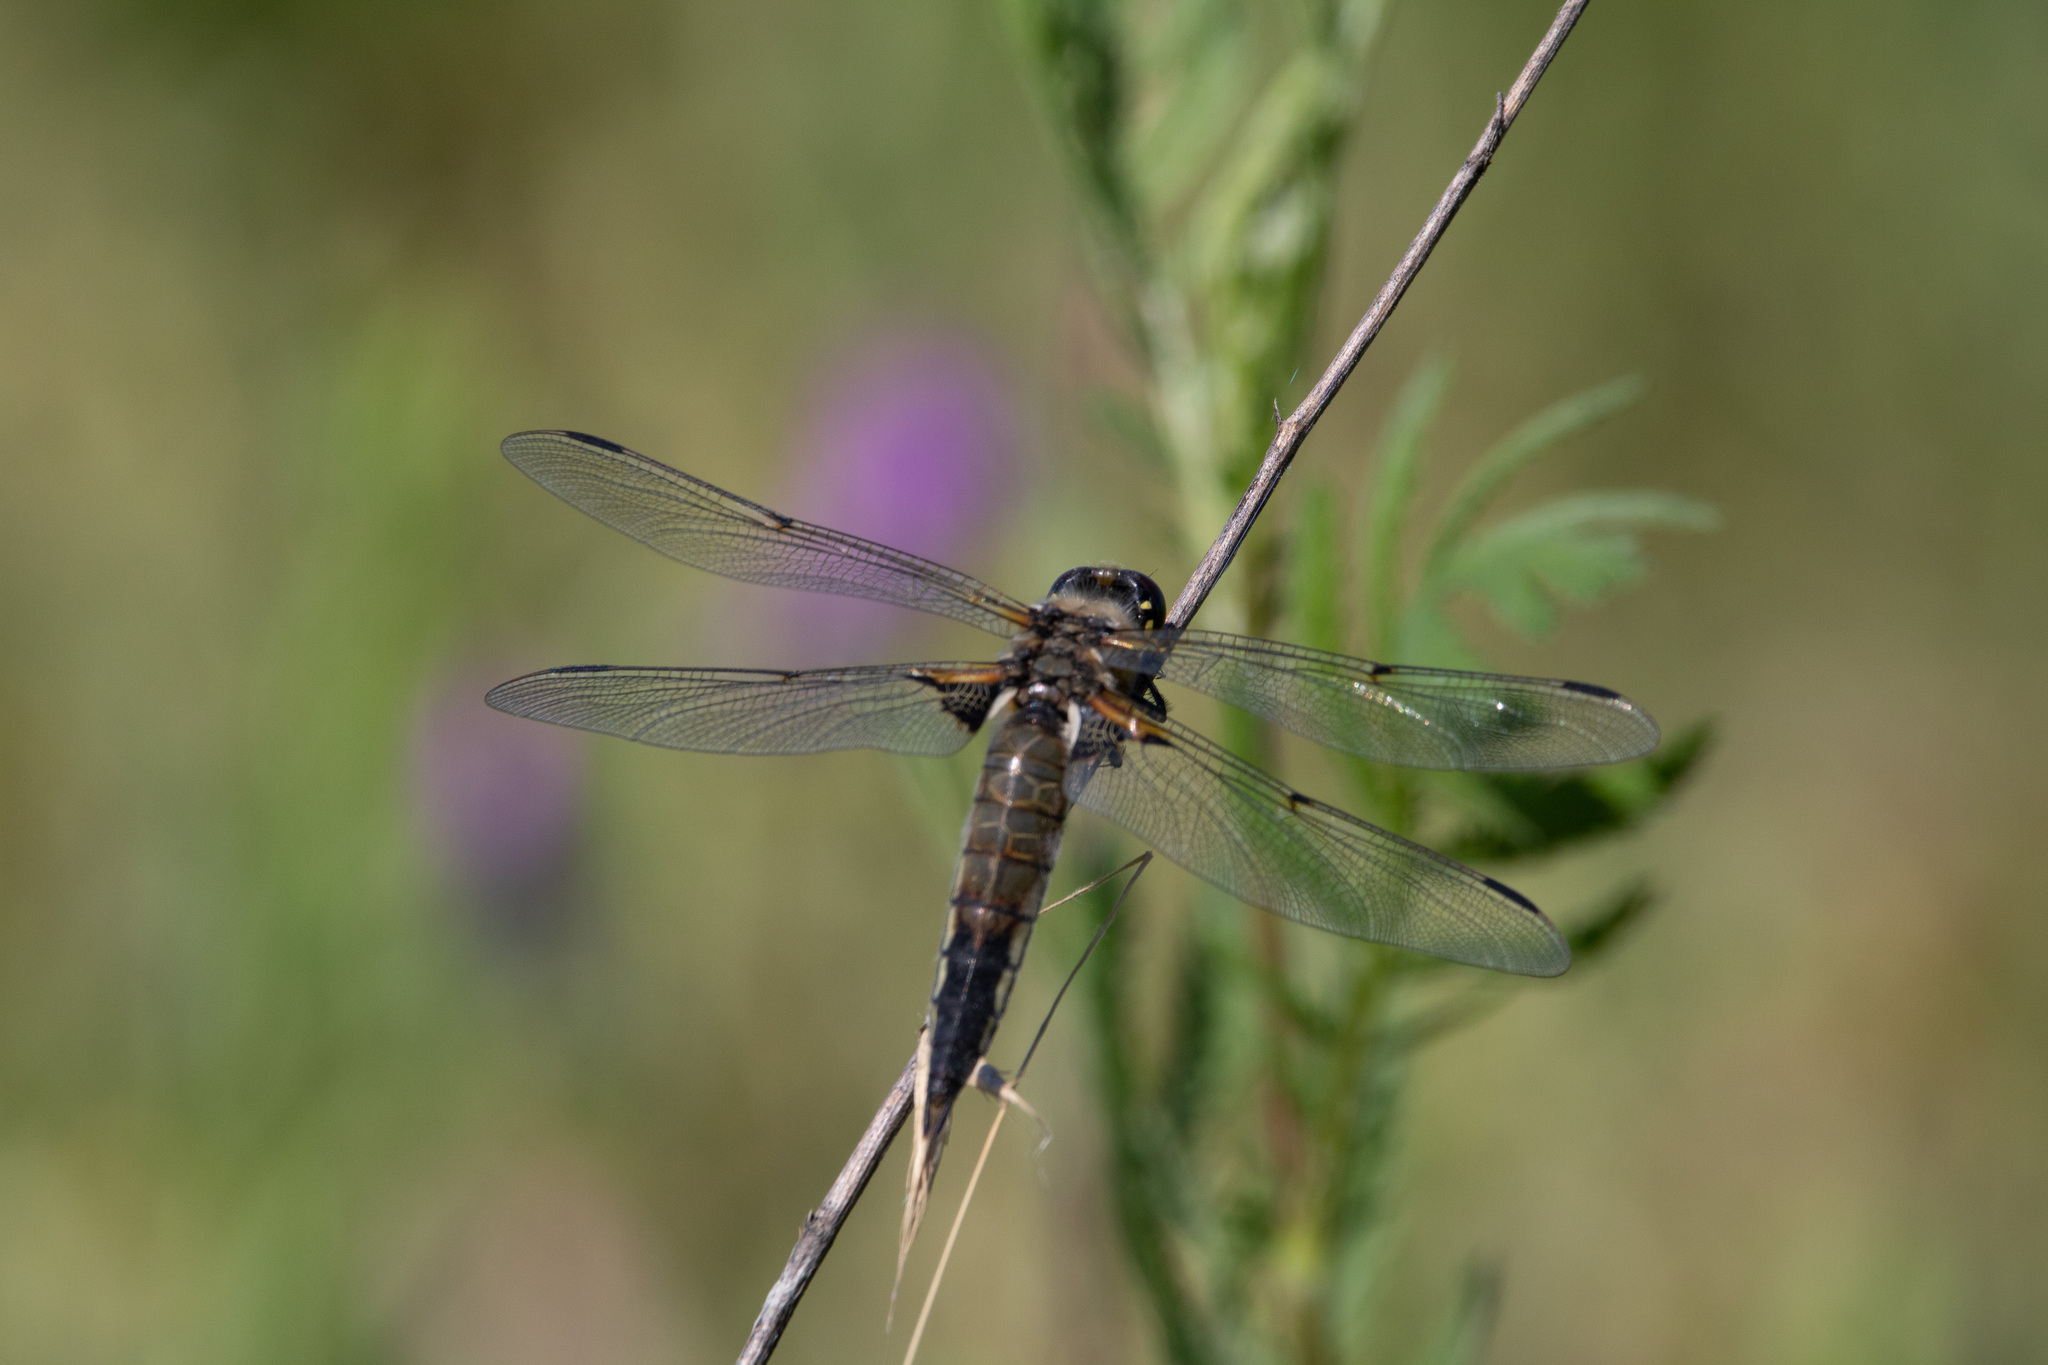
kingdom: Animalia
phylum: Arthropoda
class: Insecta
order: Odonata
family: Libellulidae
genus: Libellula
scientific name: Libellula quadrimaculata
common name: Four-spotted chaser
